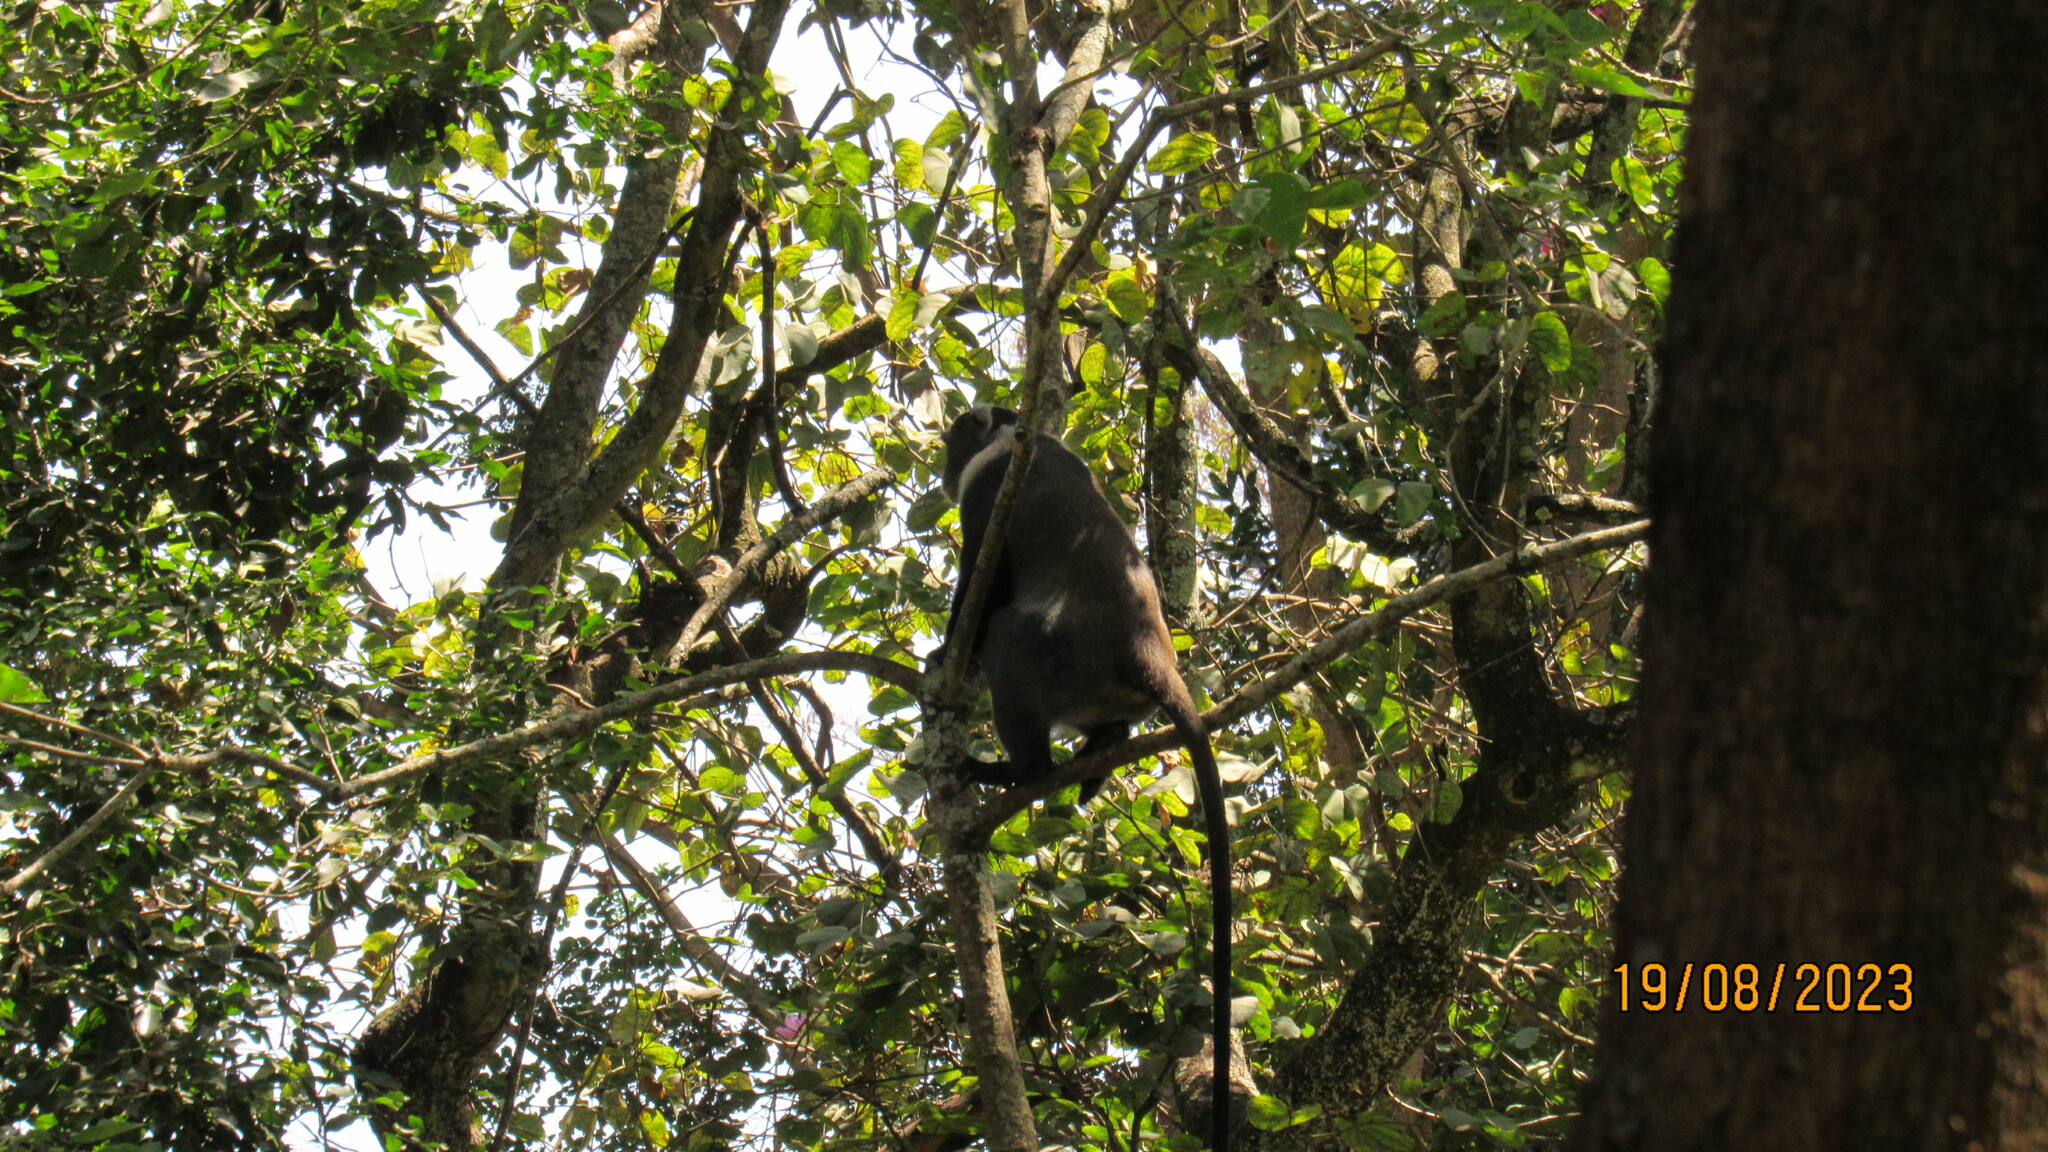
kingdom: Animalia
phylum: Chordata
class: Mammalia
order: Primates
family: Cercopithecidae
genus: Cercopithecus
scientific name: Cercopithecus mitis
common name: Blue monkey
